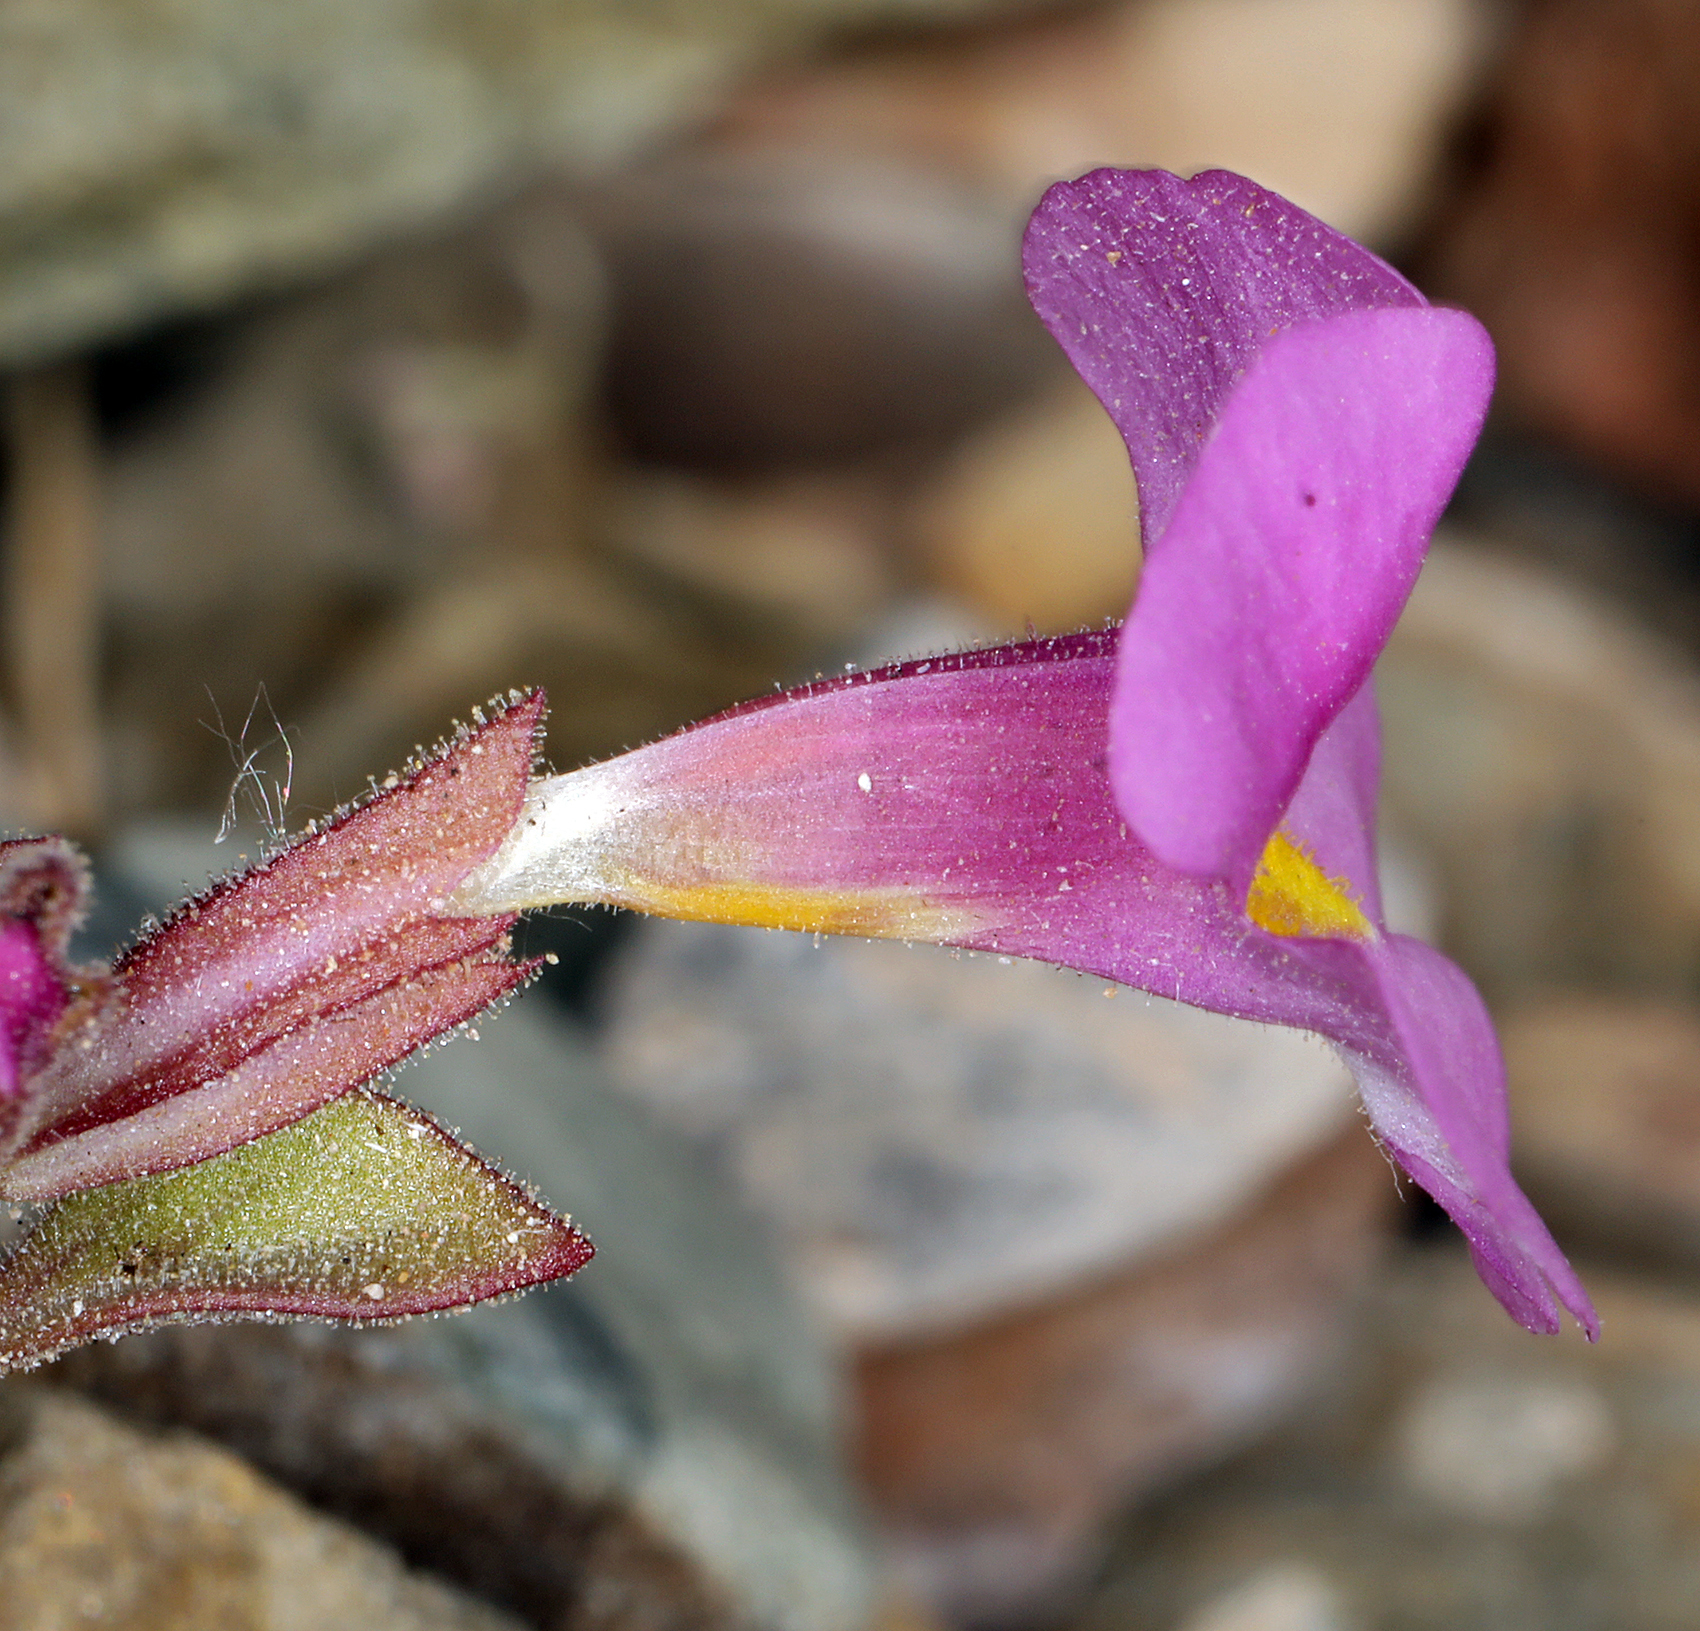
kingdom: Plantae
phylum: Tracheophyta
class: Magnoliopsida
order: Lamiales
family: Phrymaceae
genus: Diplacus
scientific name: Diplacus parryi
